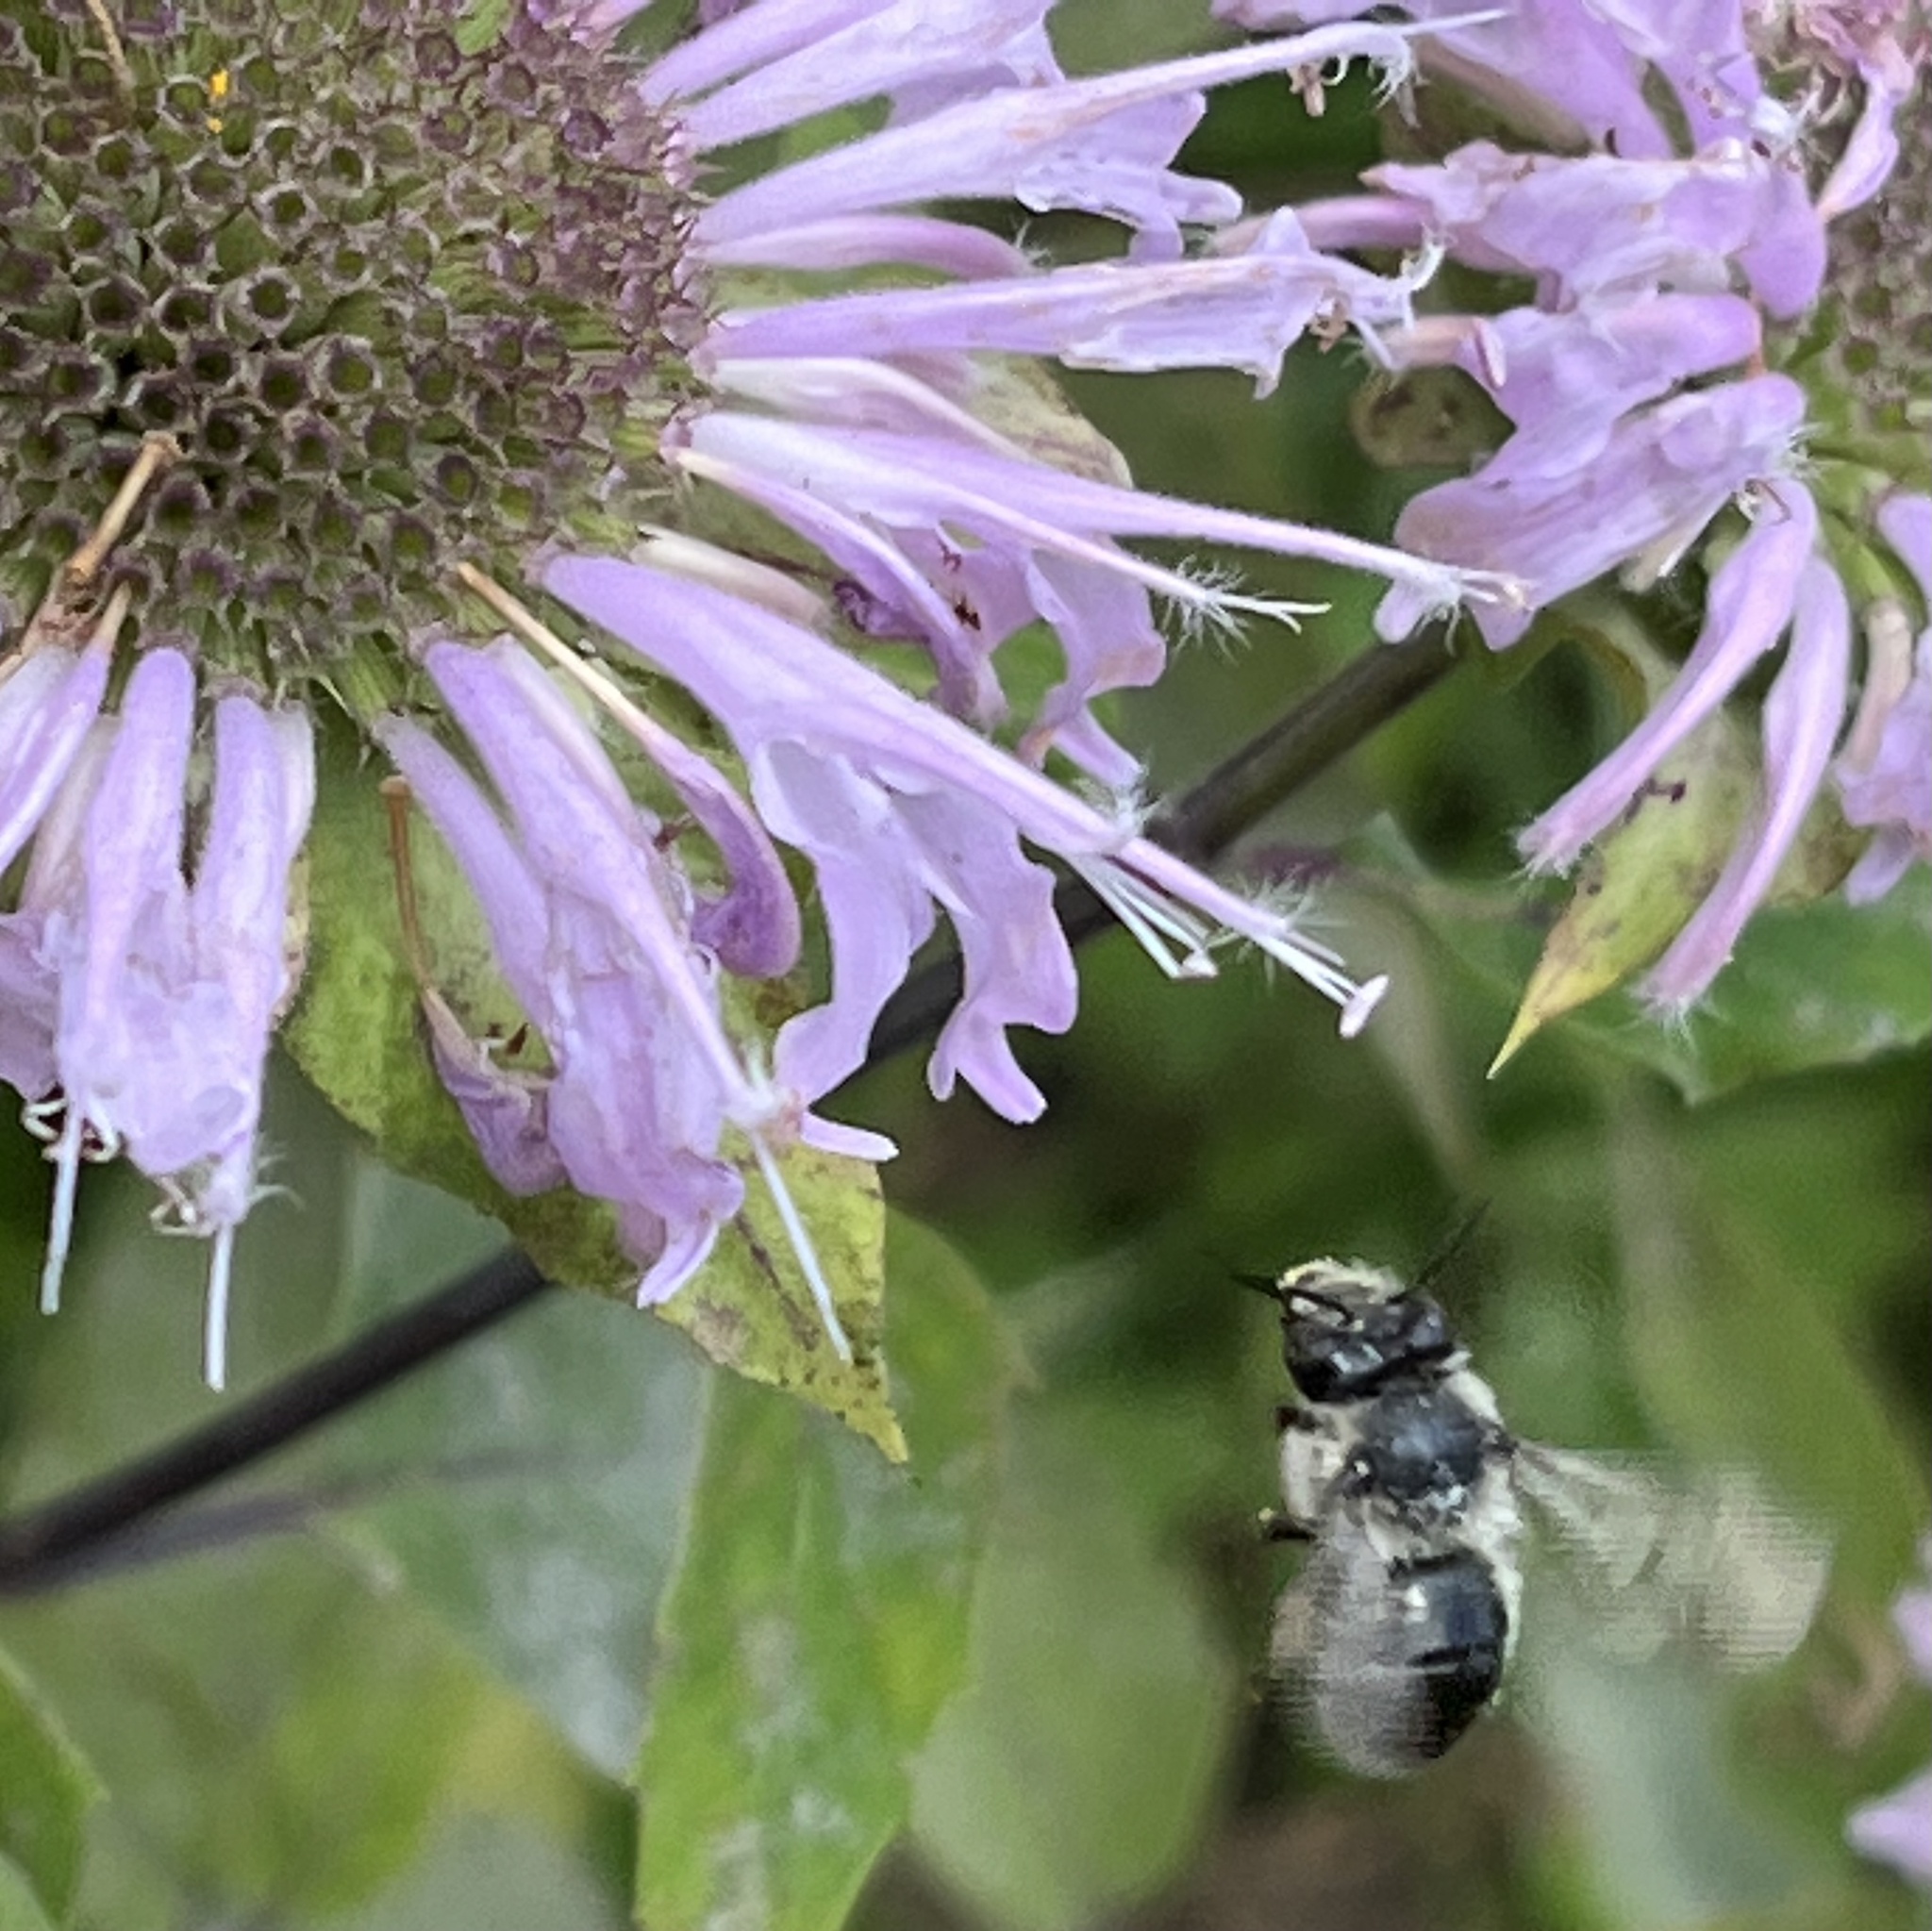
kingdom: Animalia
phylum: Arthropoda
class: Insecta
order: Hymenoptera
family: Apidae
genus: Anthophora
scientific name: Anthophora terminalis
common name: Orange-tipped wood-digger bee
